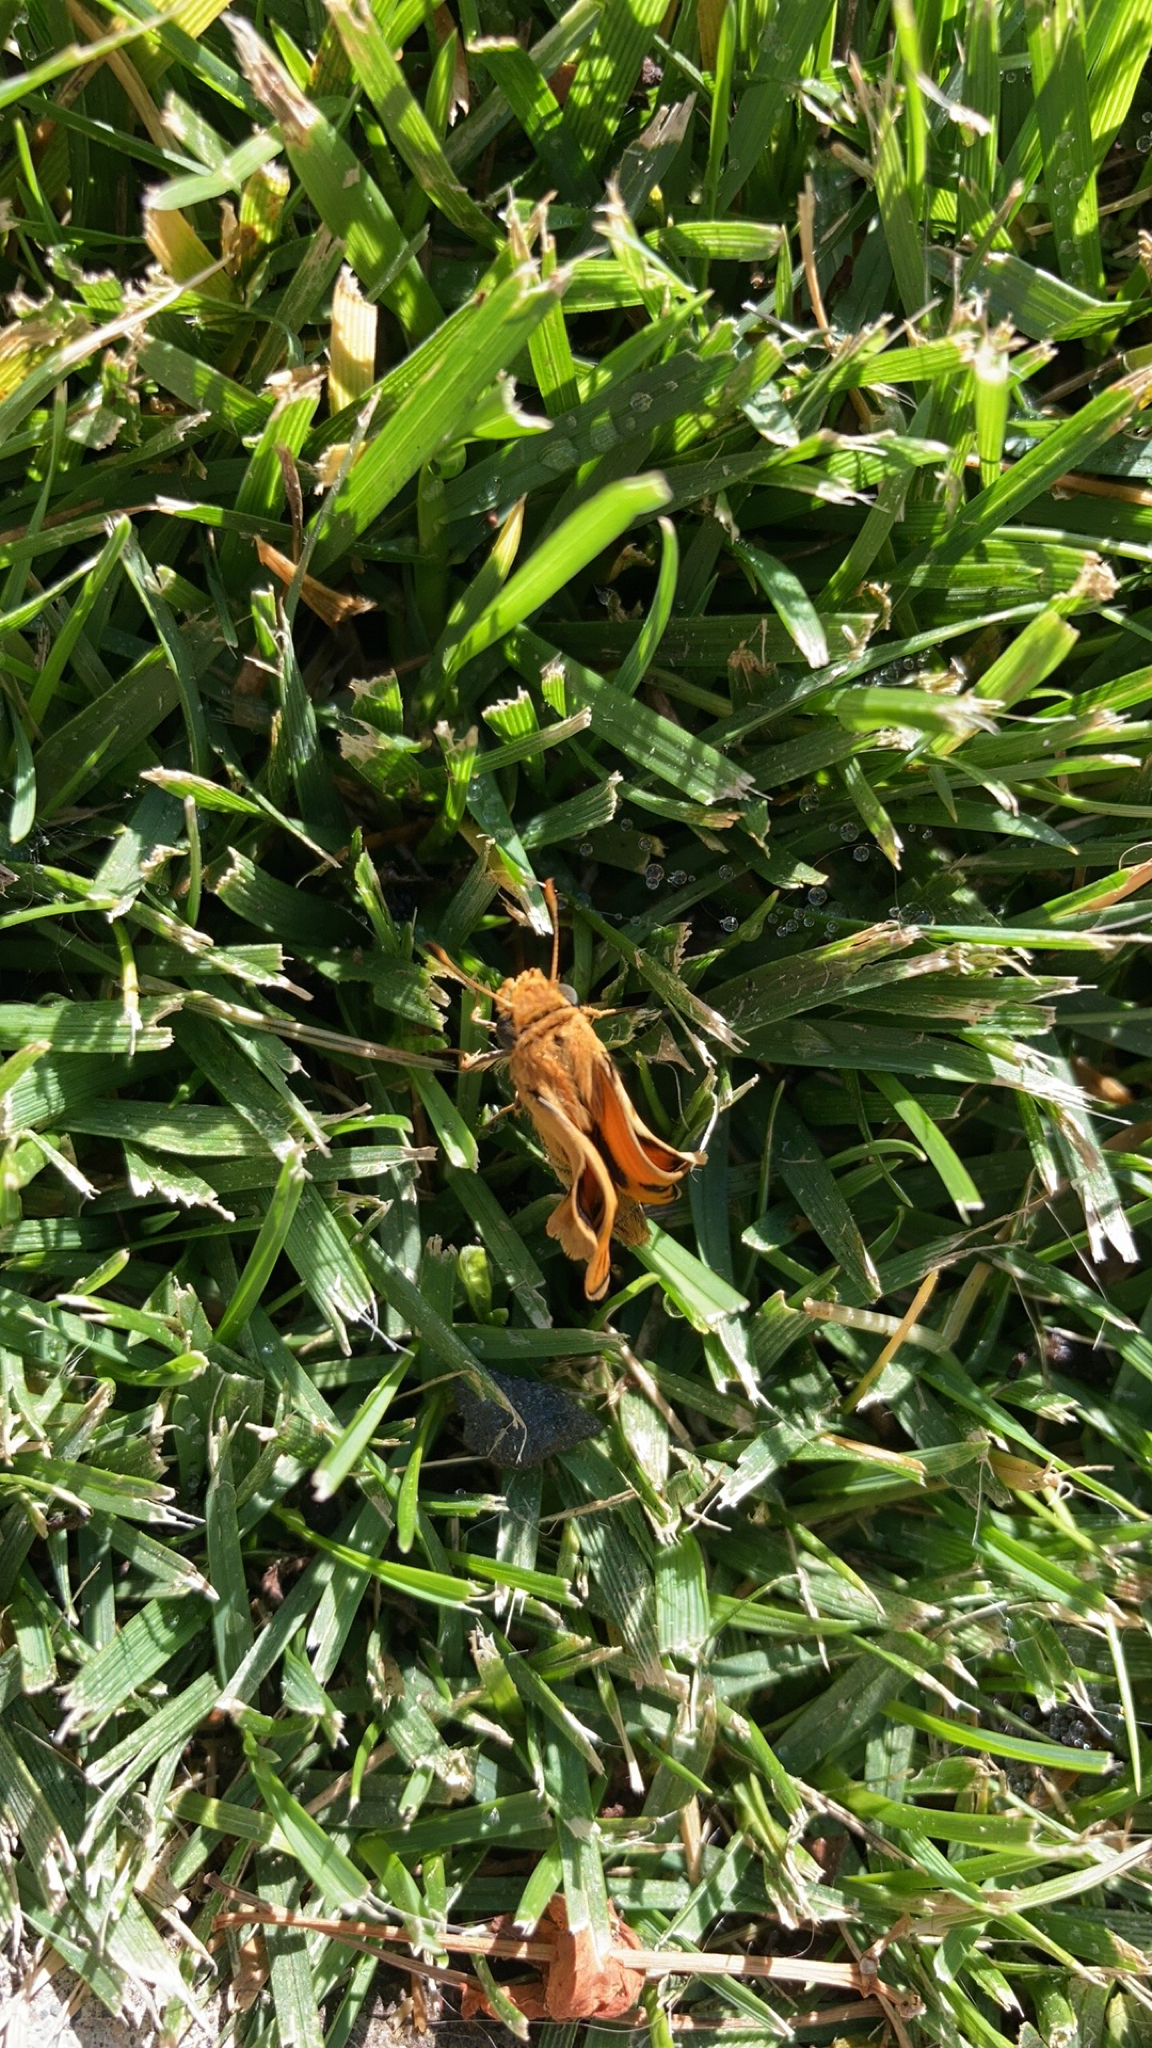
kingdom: Animalia
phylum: Arthropoda
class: Insecta
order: Lepidoptera
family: Hesperiidae
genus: Hylephila
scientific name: Hylephila phyleus
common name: Fiery skipper
